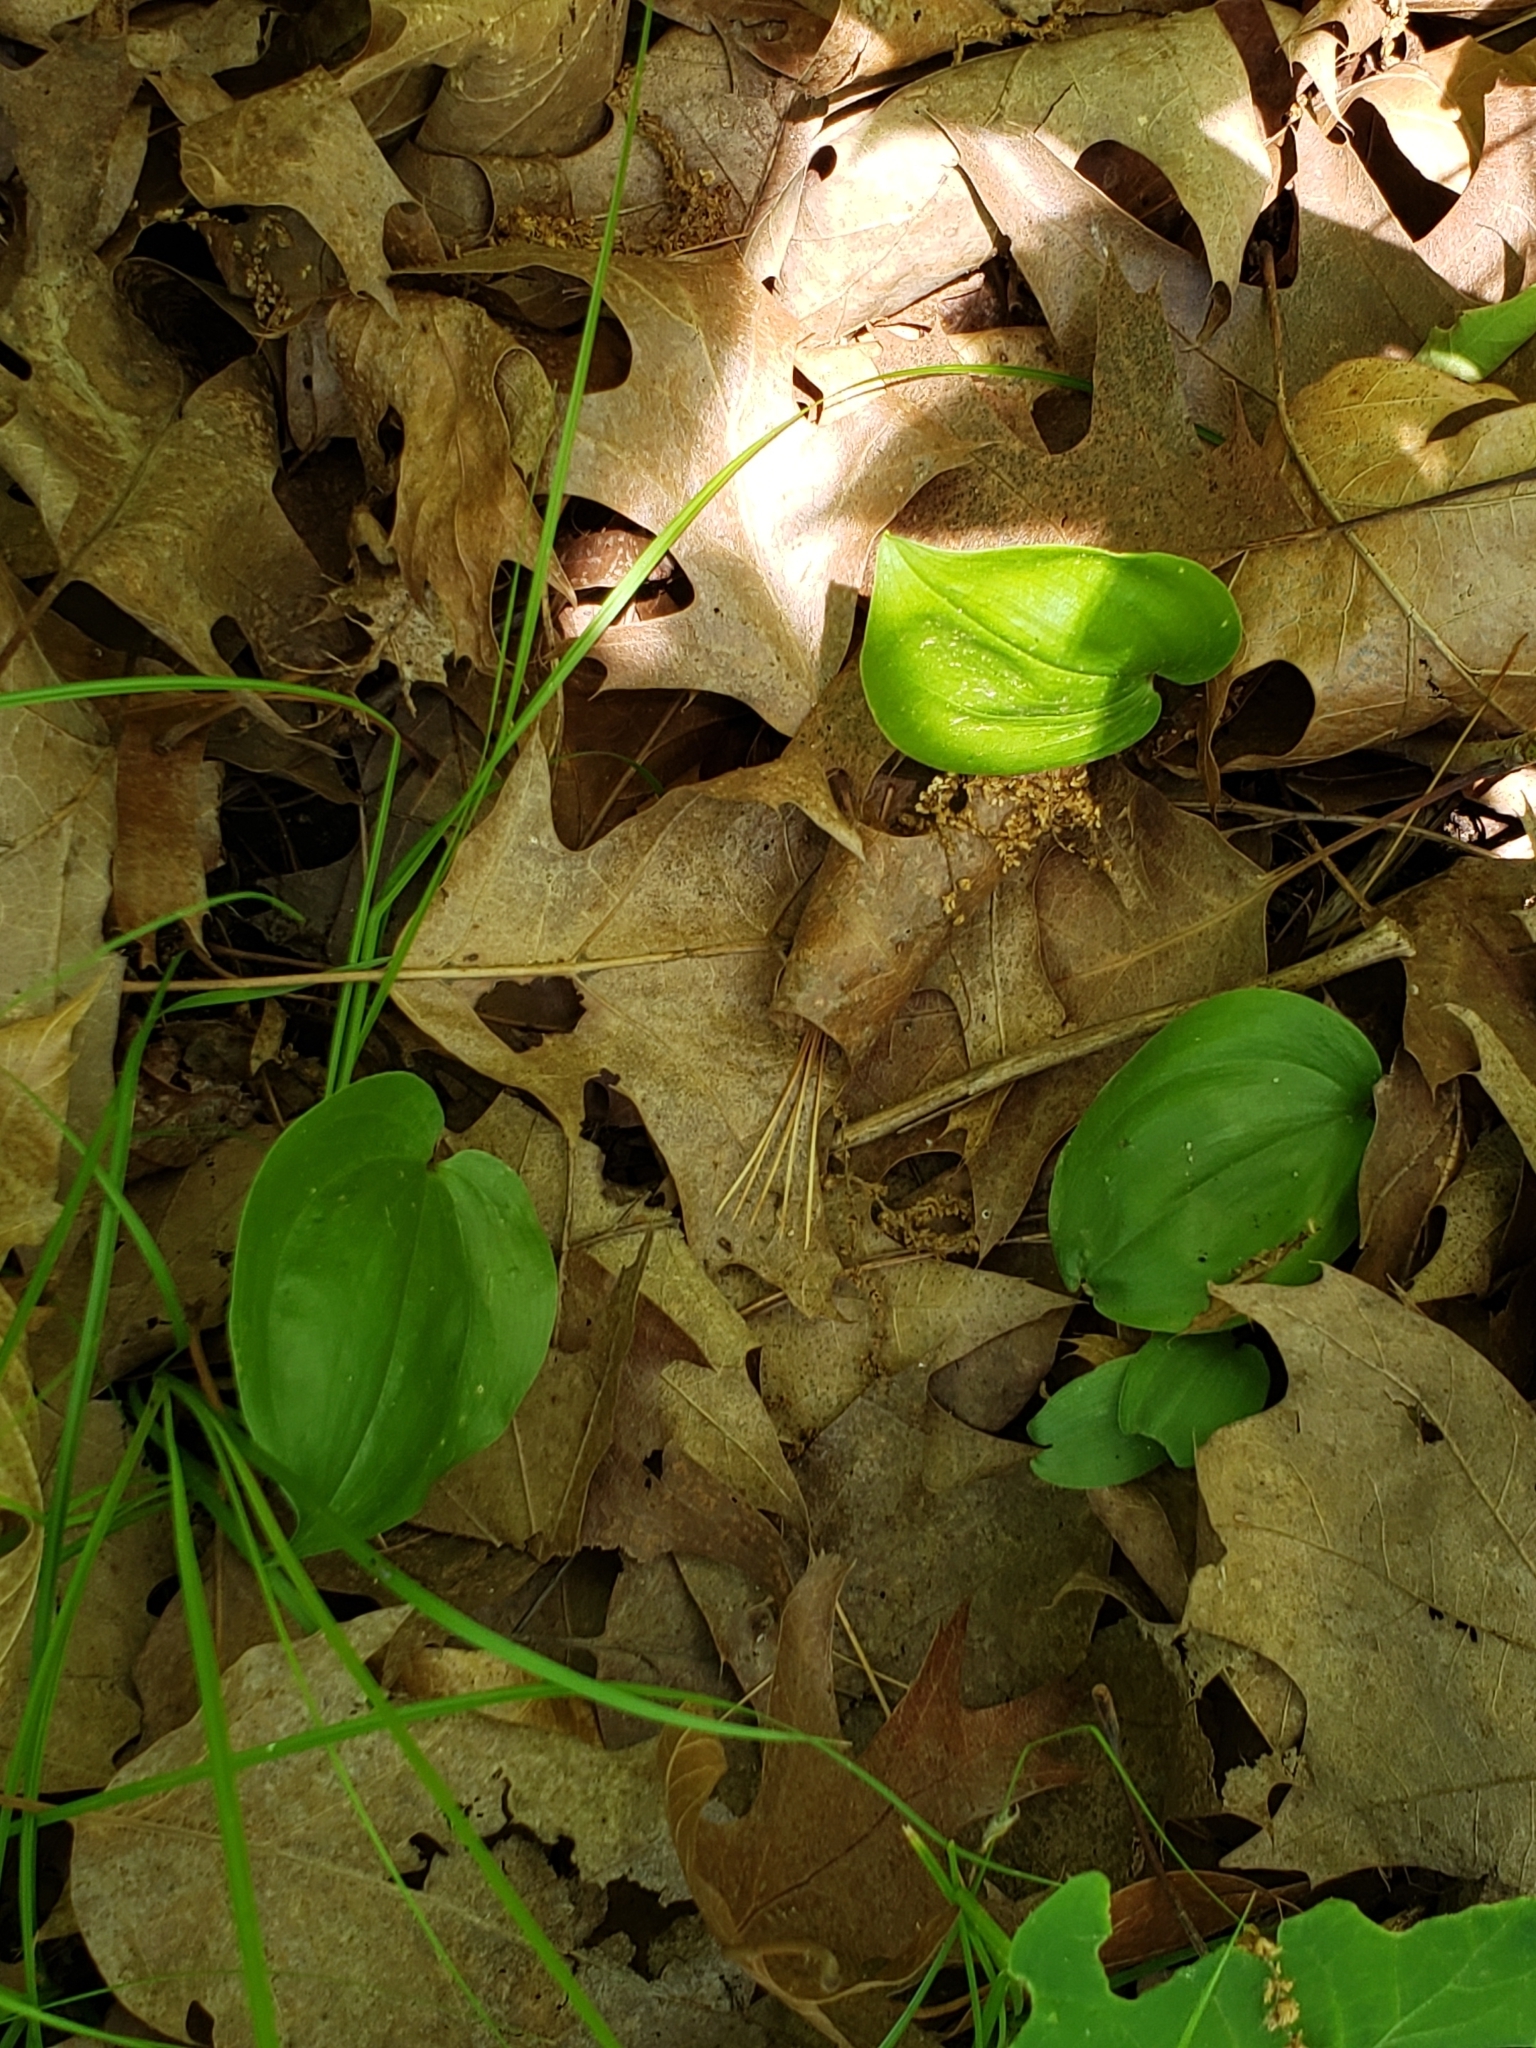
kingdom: Plantae
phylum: Tracheophyta
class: Liliopsida
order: Asparagales
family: Asparagaceae
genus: Maianthemum
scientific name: Maianthemum canadense
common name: False lily-of-the-valley
